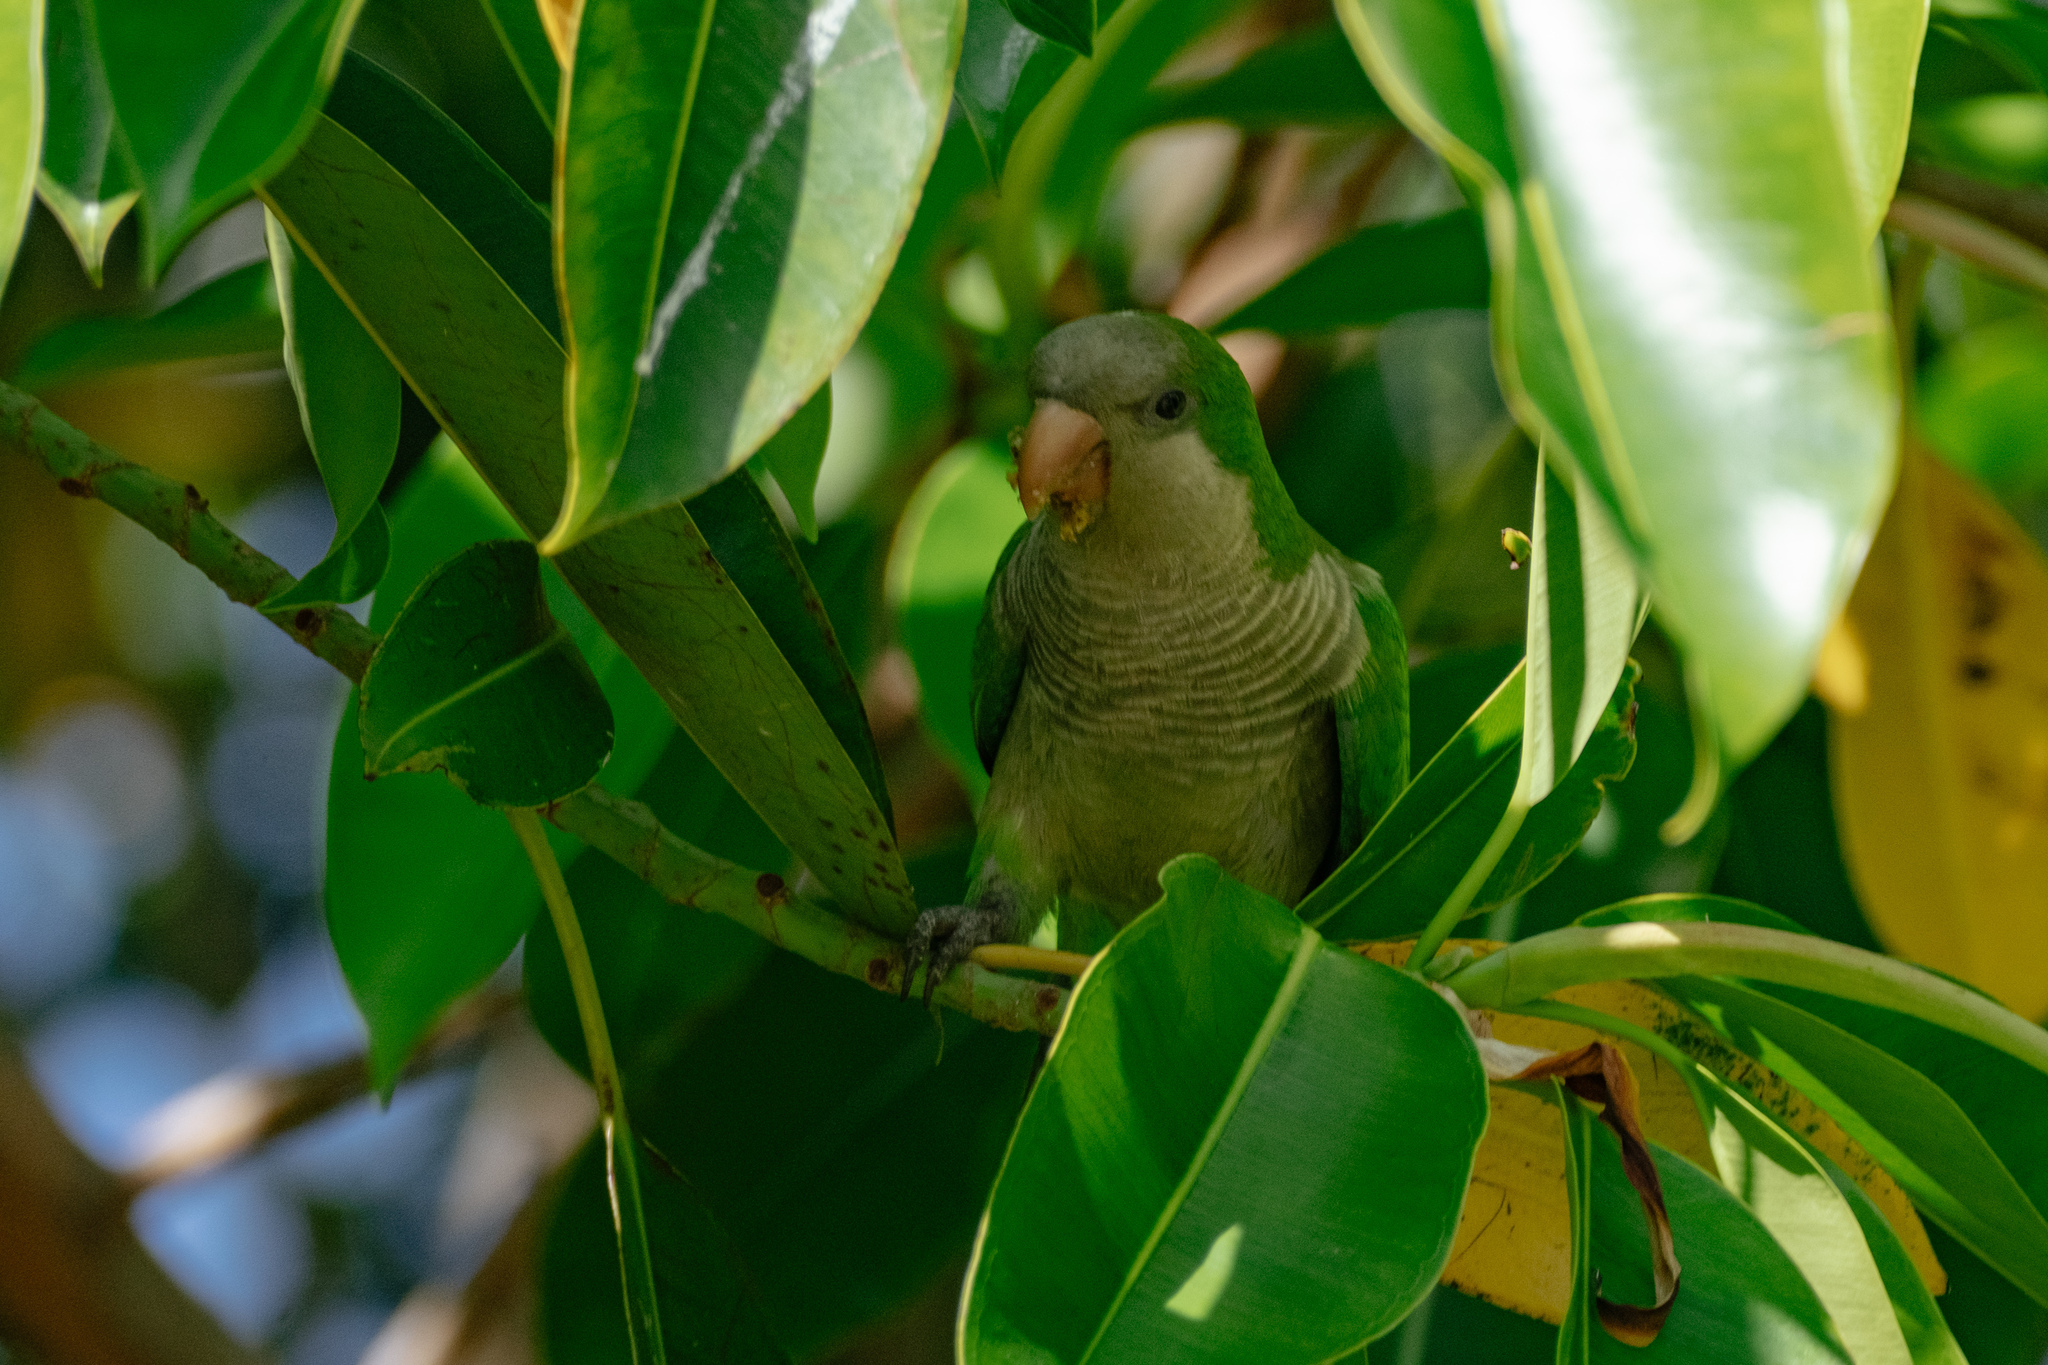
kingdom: Animalia
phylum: Chordata
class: Aves
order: Psittaciformes
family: Psittacidae
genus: Myiopsitta
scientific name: Myiopsitta monachus
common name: Monk parakeet
